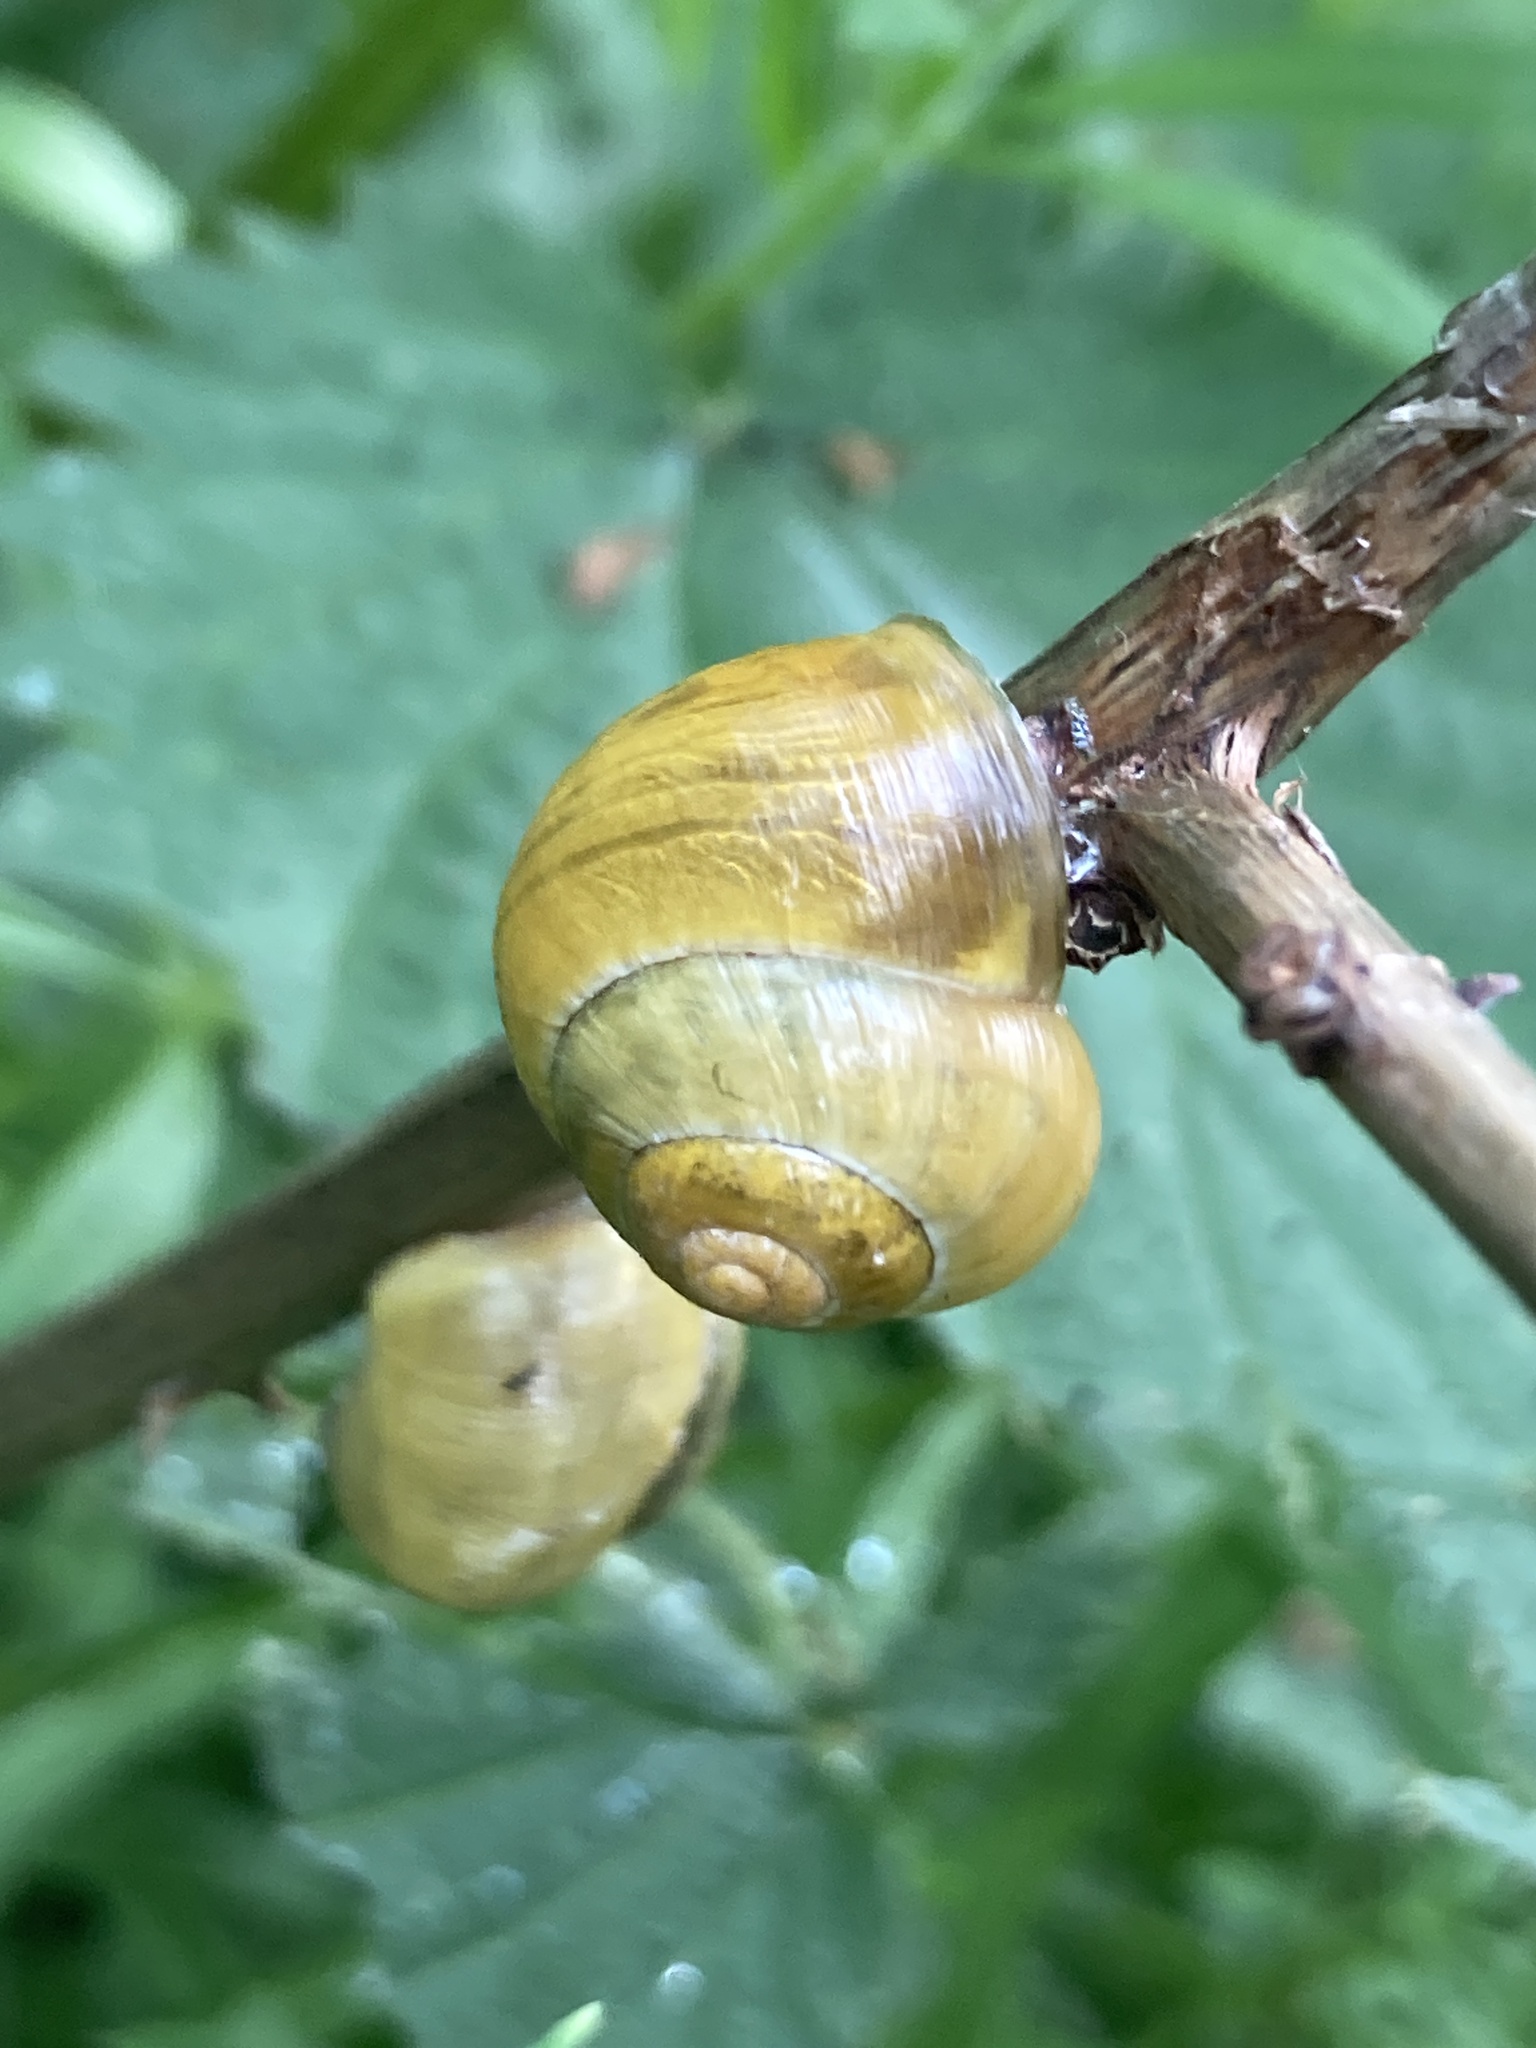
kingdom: Animalia
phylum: Mollusca
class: Gastropoda
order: Stylommatophora
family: Helicidae
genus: Cepaea
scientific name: Cepaea
